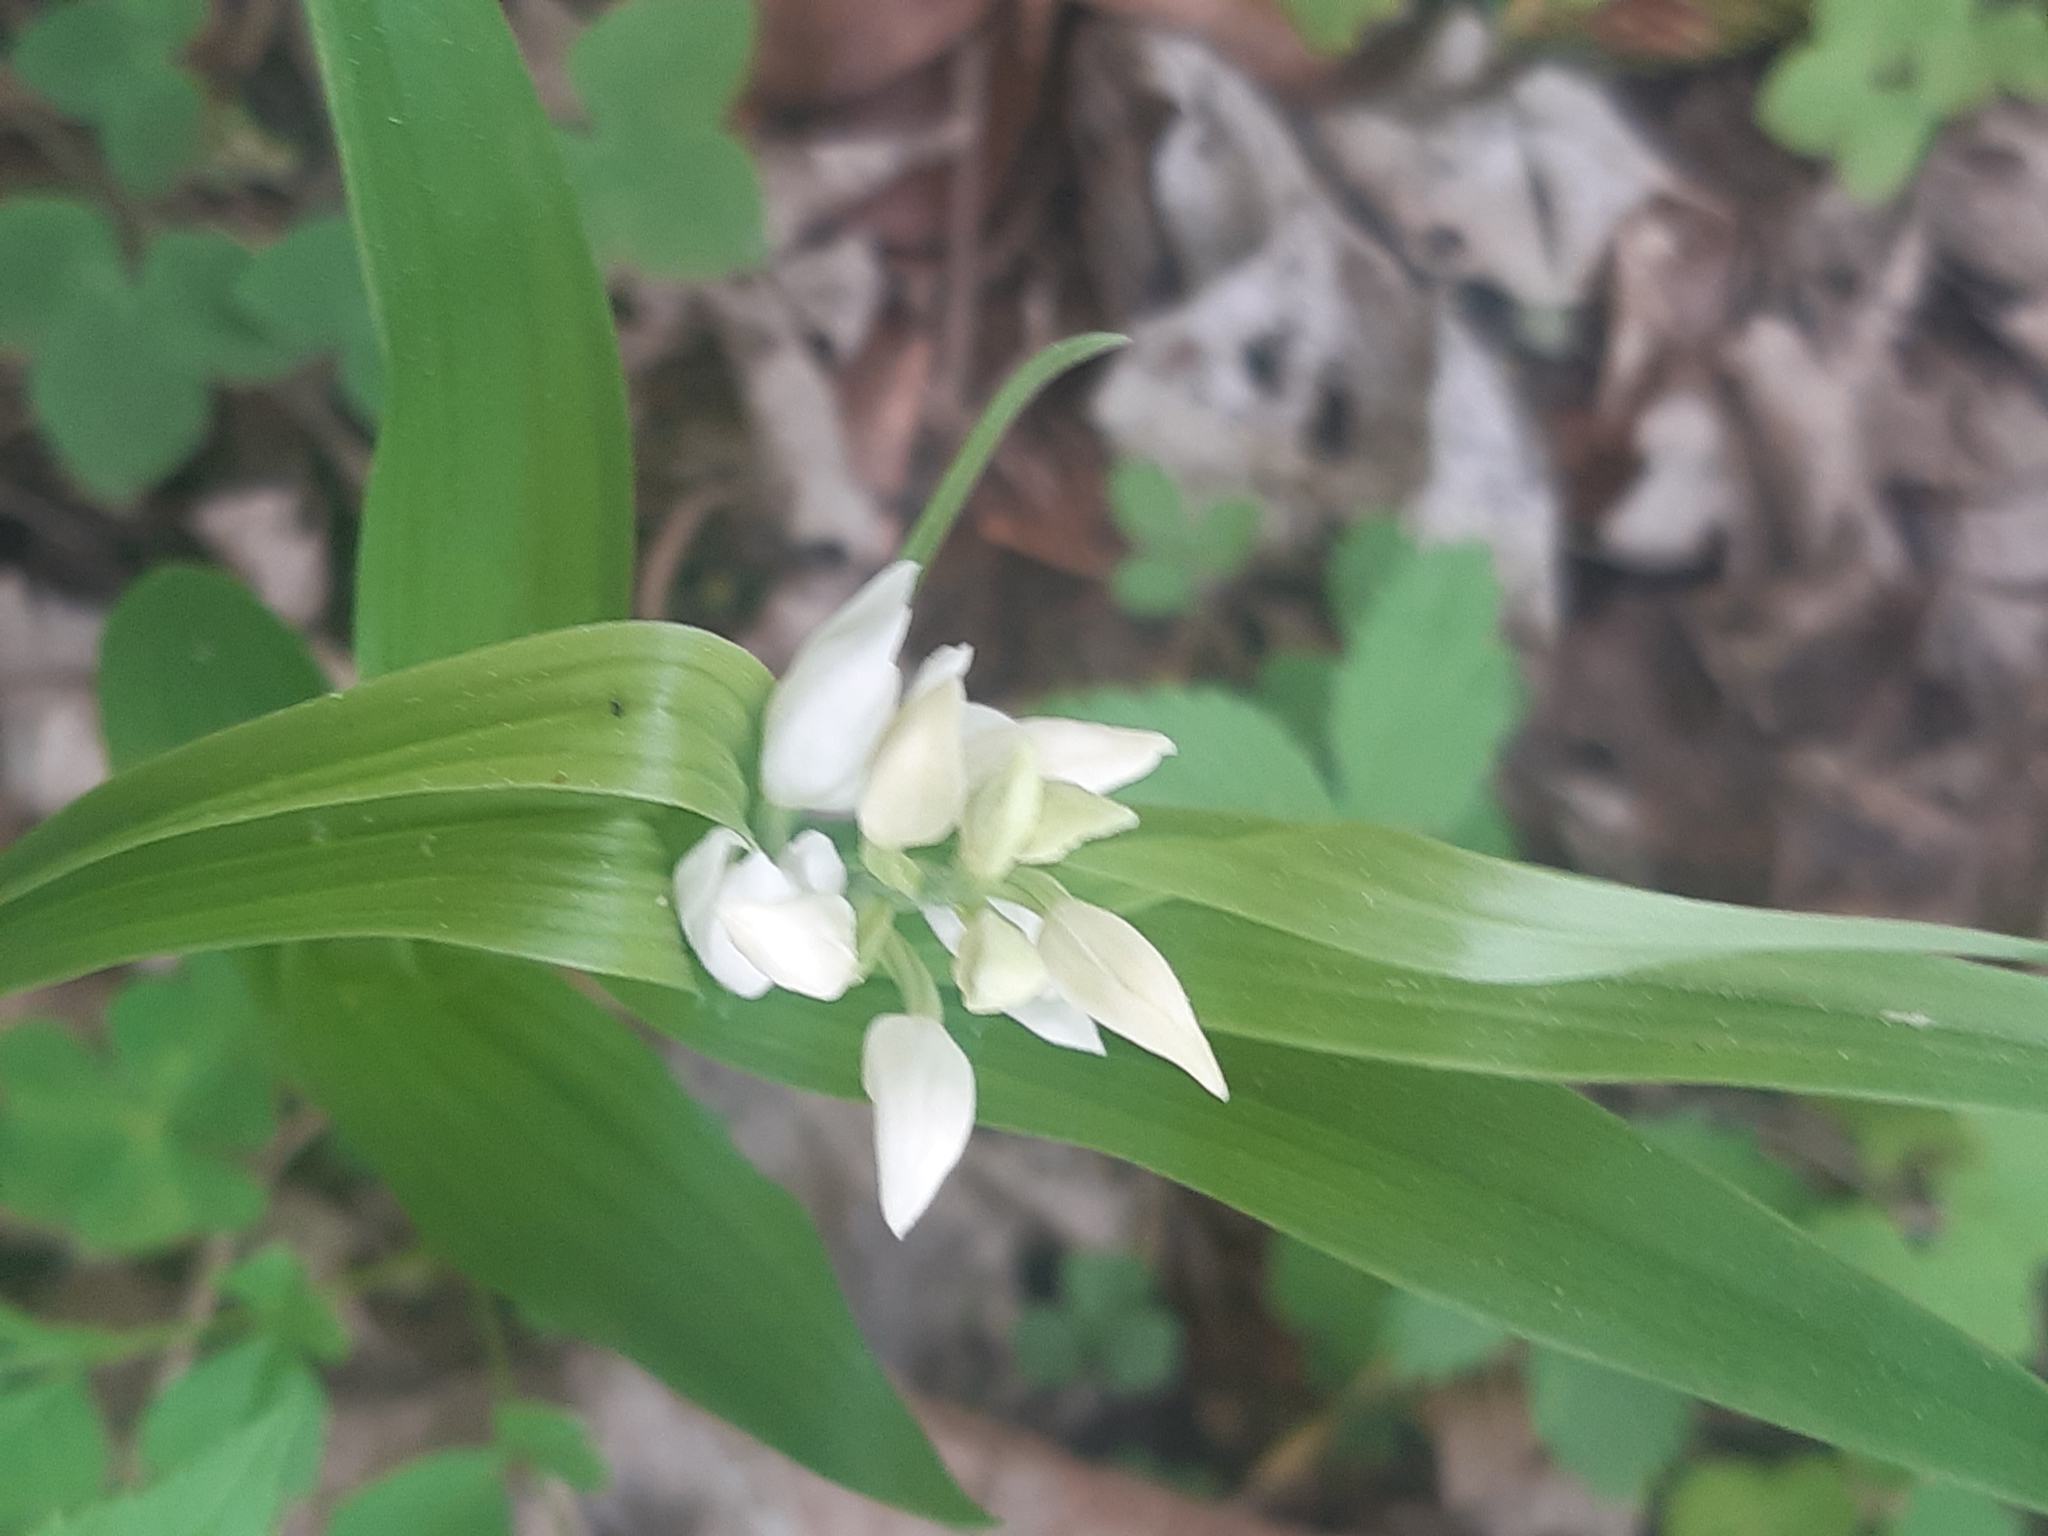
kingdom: Plantae
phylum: Tracheophyta
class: Liliopsida
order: Asparagales
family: Orchidaceae
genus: Cephalanthera
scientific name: Cephalanthera longifolia
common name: Narrow-leaved helleborine
